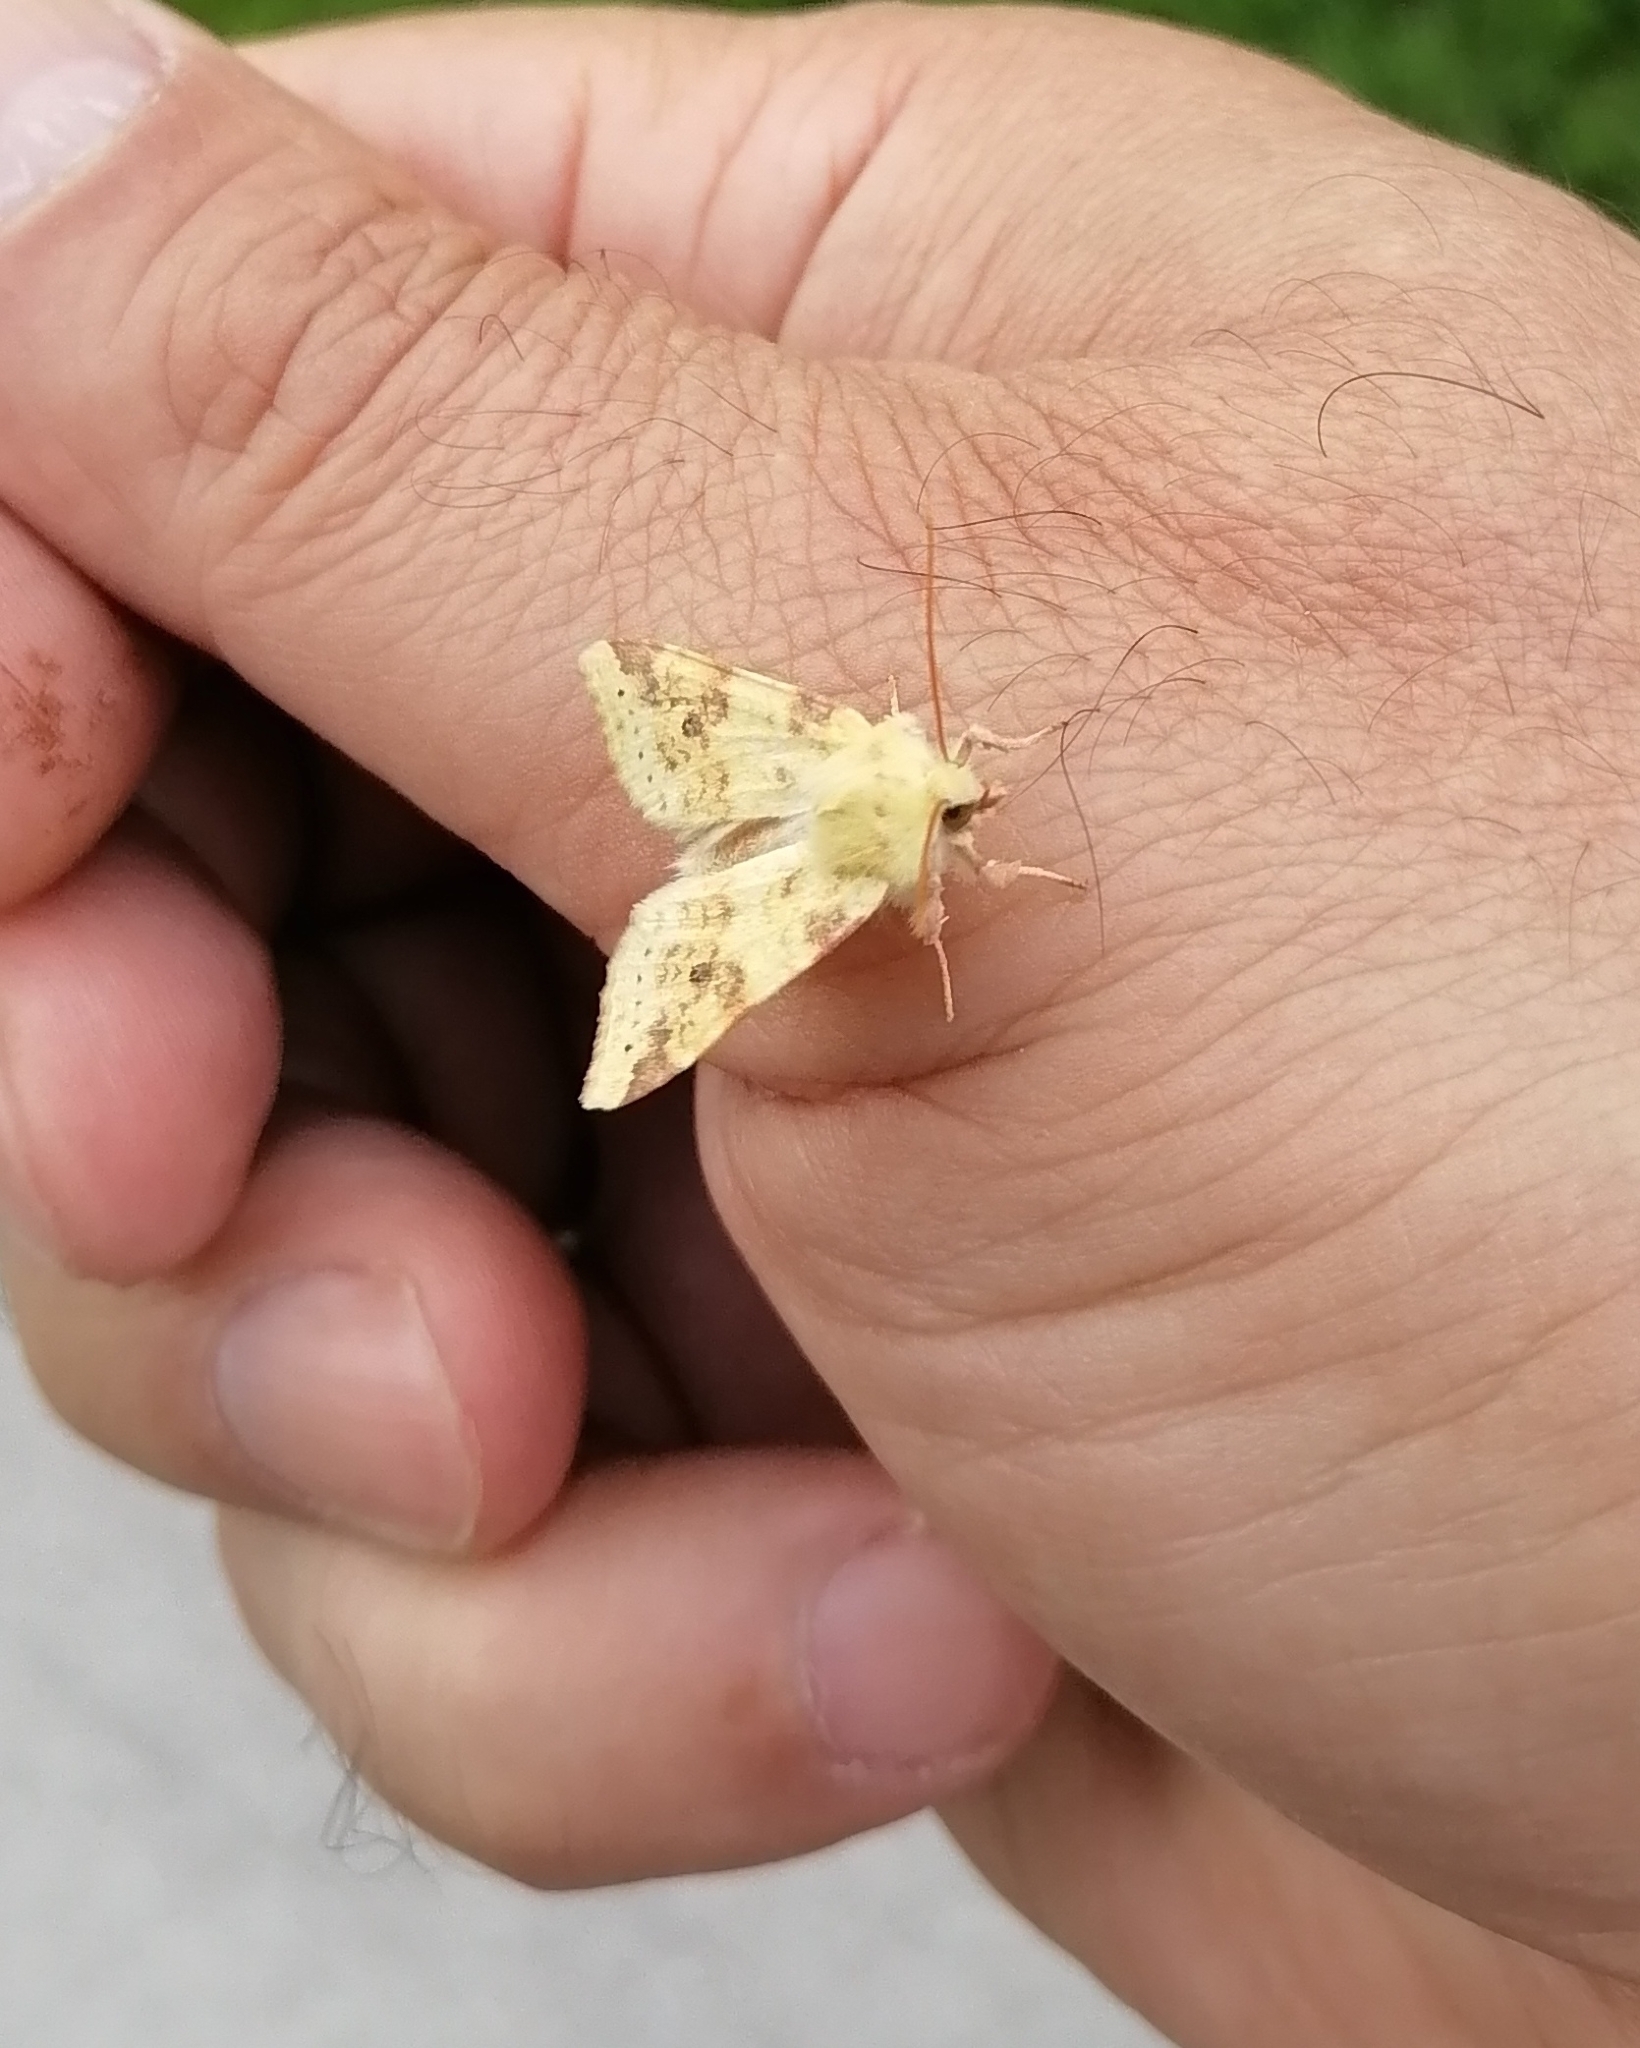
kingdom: Animalia
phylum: Arthropoda
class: Insecta
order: Lepidoptera
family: Noctuidae
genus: Xanthia
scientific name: Xanthia icteritia
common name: The sallow
